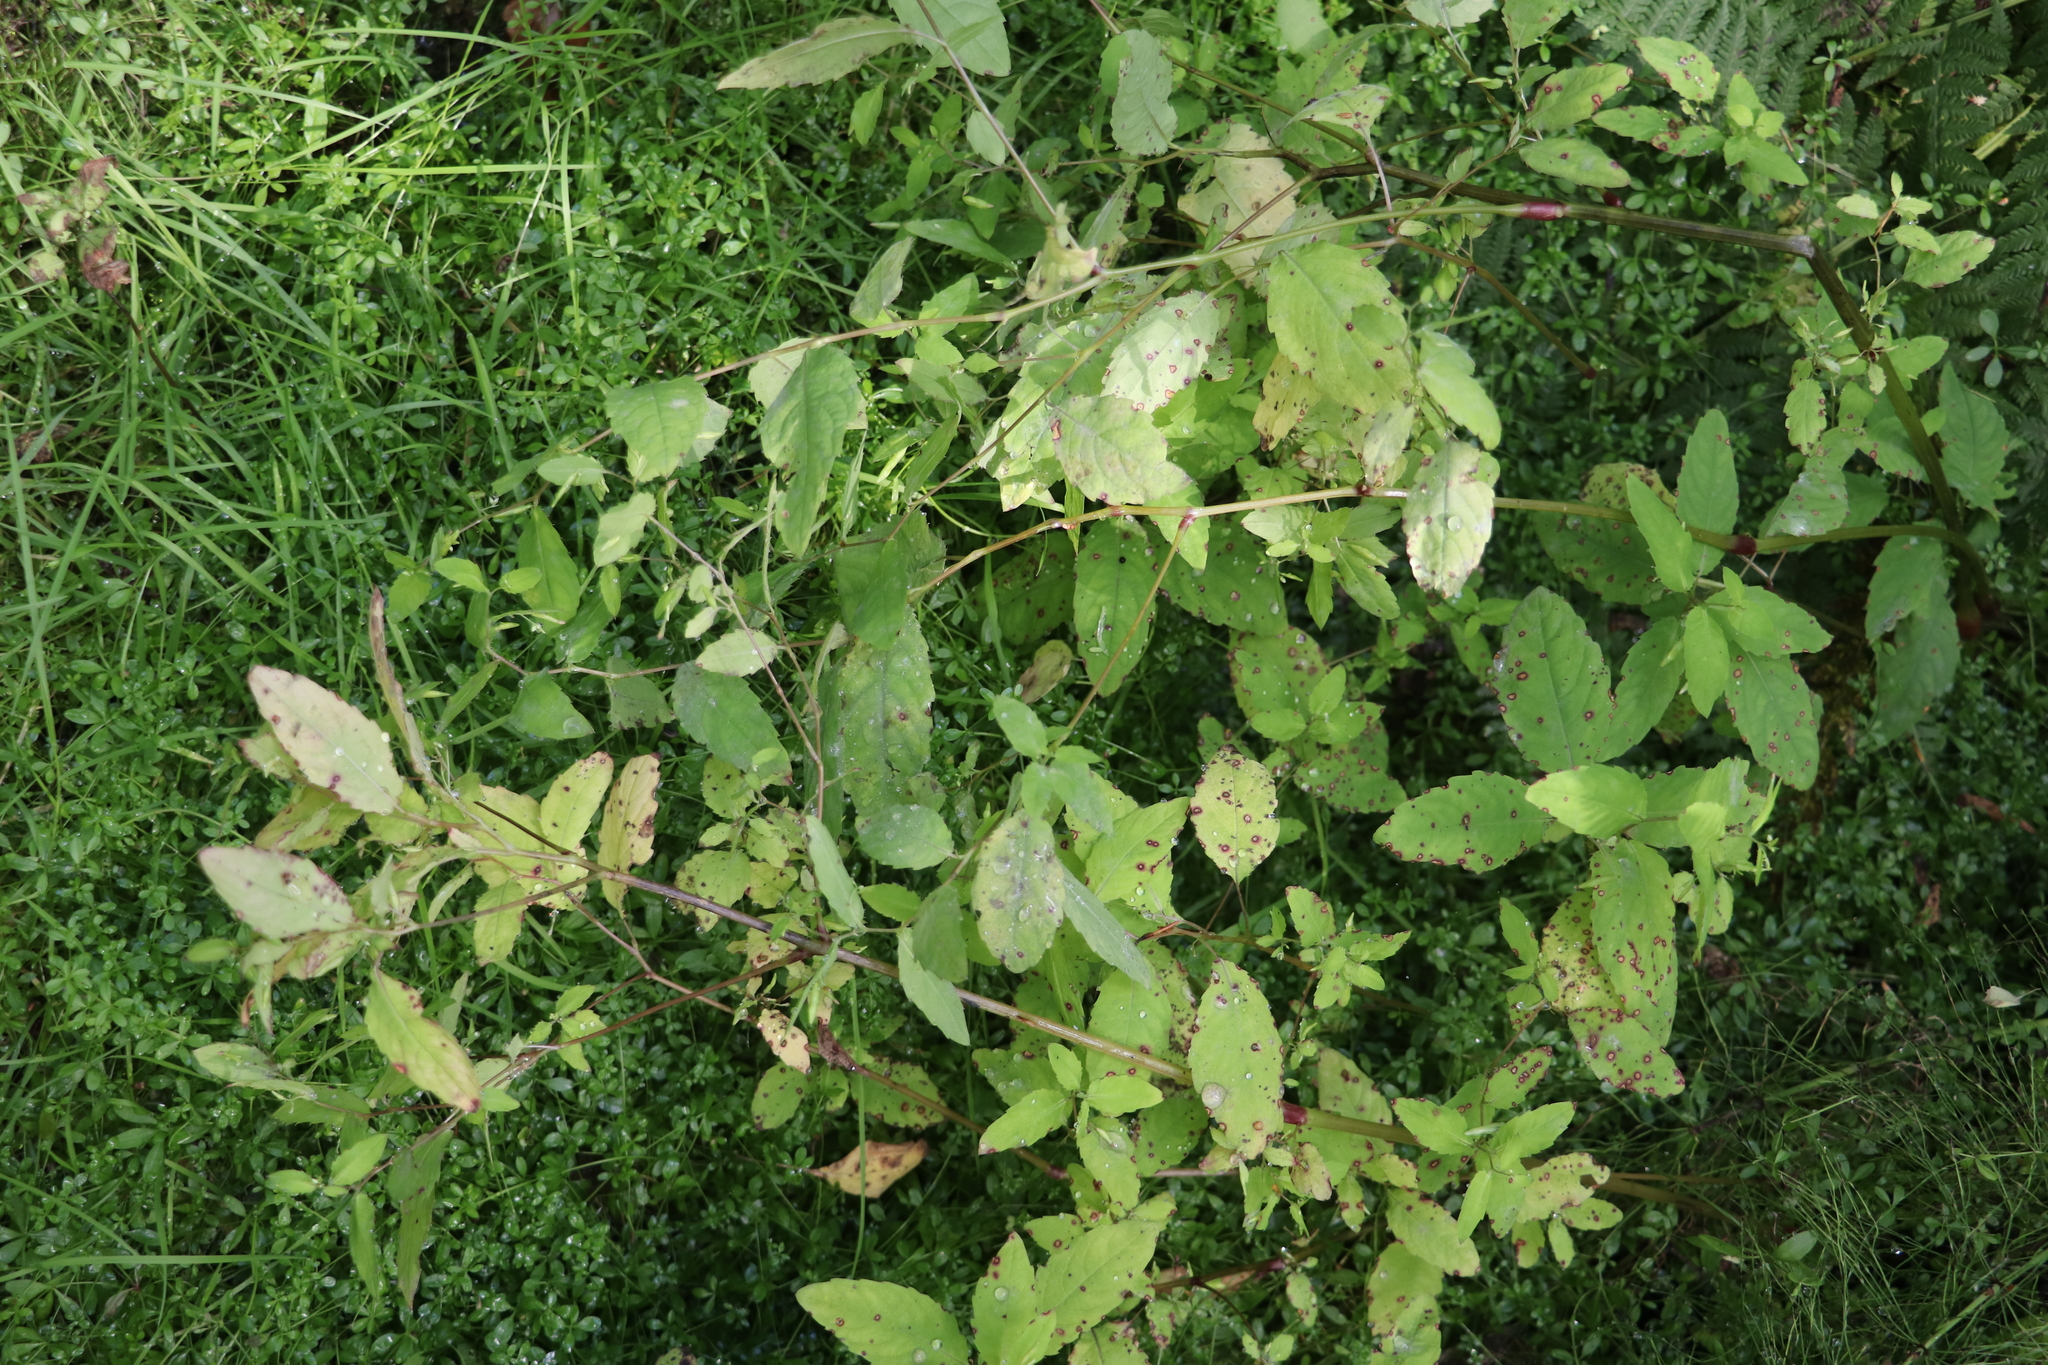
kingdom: Plantae
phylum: Tracheophyta
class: Magnoliopsida
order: Ericales
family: Balsaminaceae
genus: Impatiens
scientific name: Impatiens noli-tangere
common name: Touch-me-not balsam
